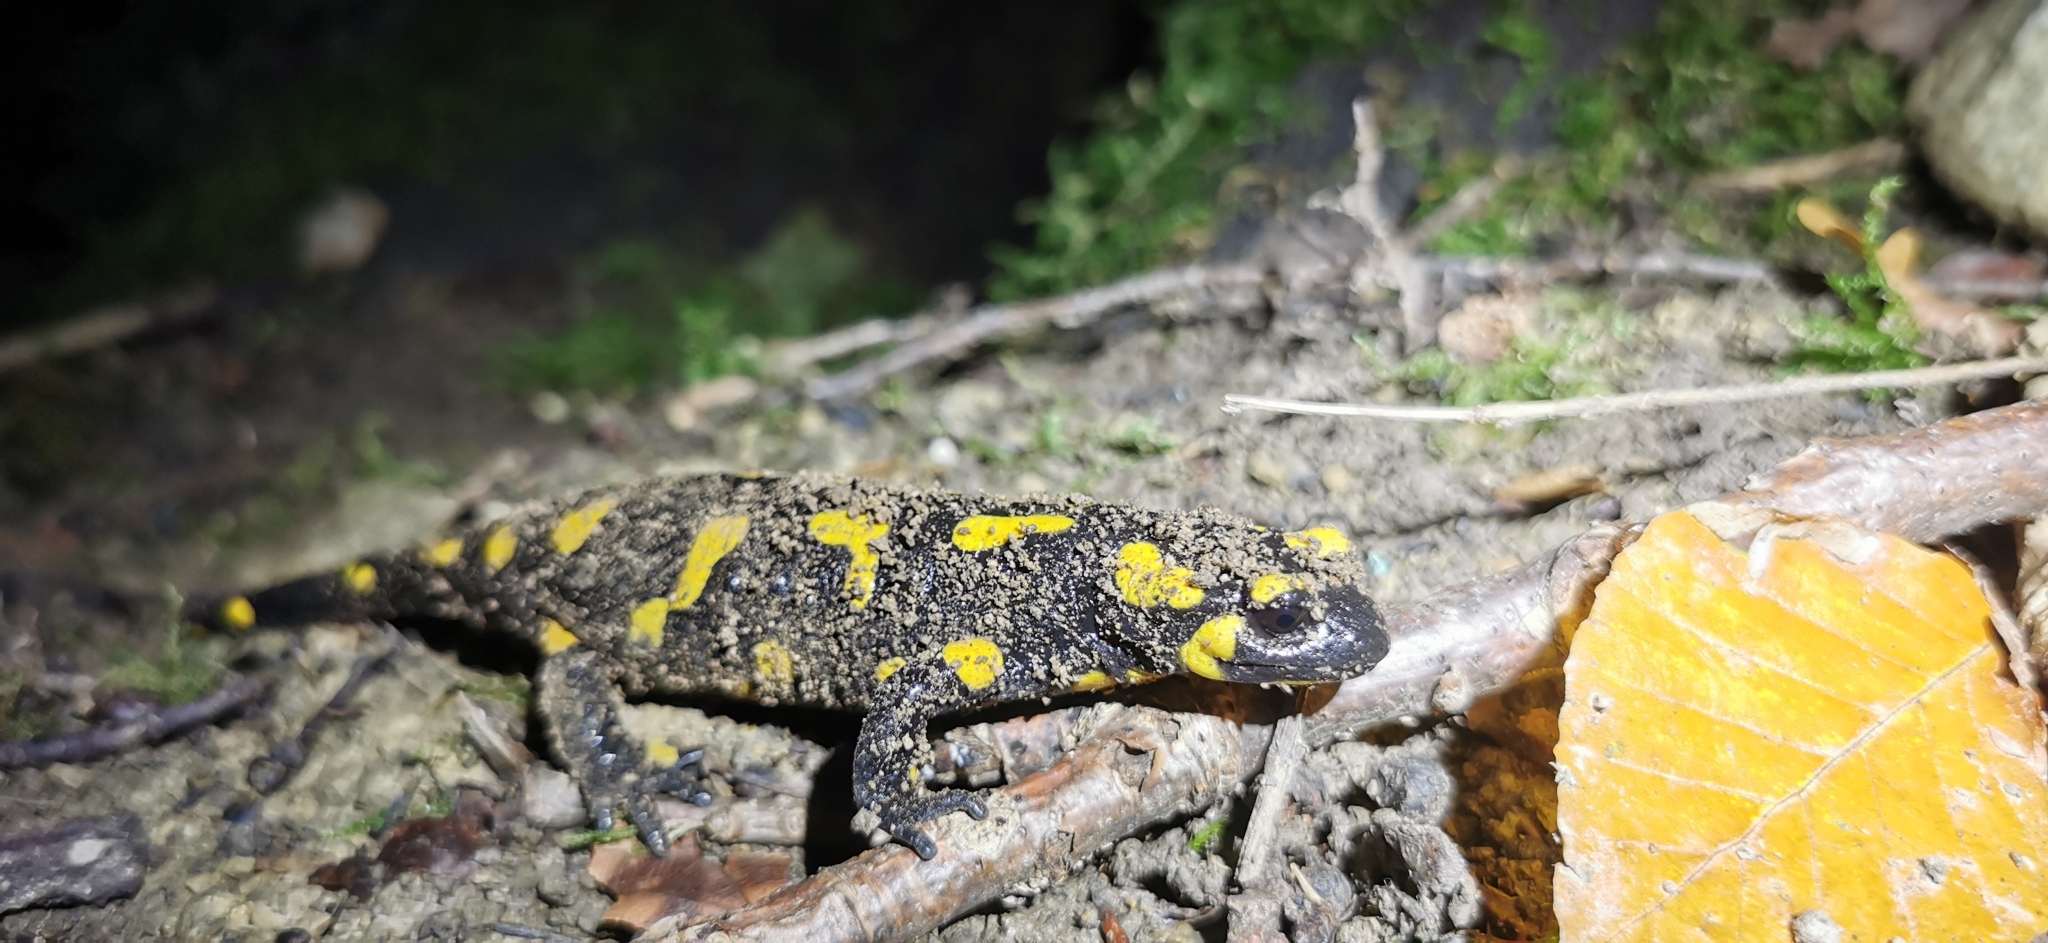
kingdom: Animalia
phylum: Chordata
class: Amphibia
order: Caudata
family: Salamandridae
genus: Salamandra
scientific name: Salamandra salamandra
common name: Fire salamander
